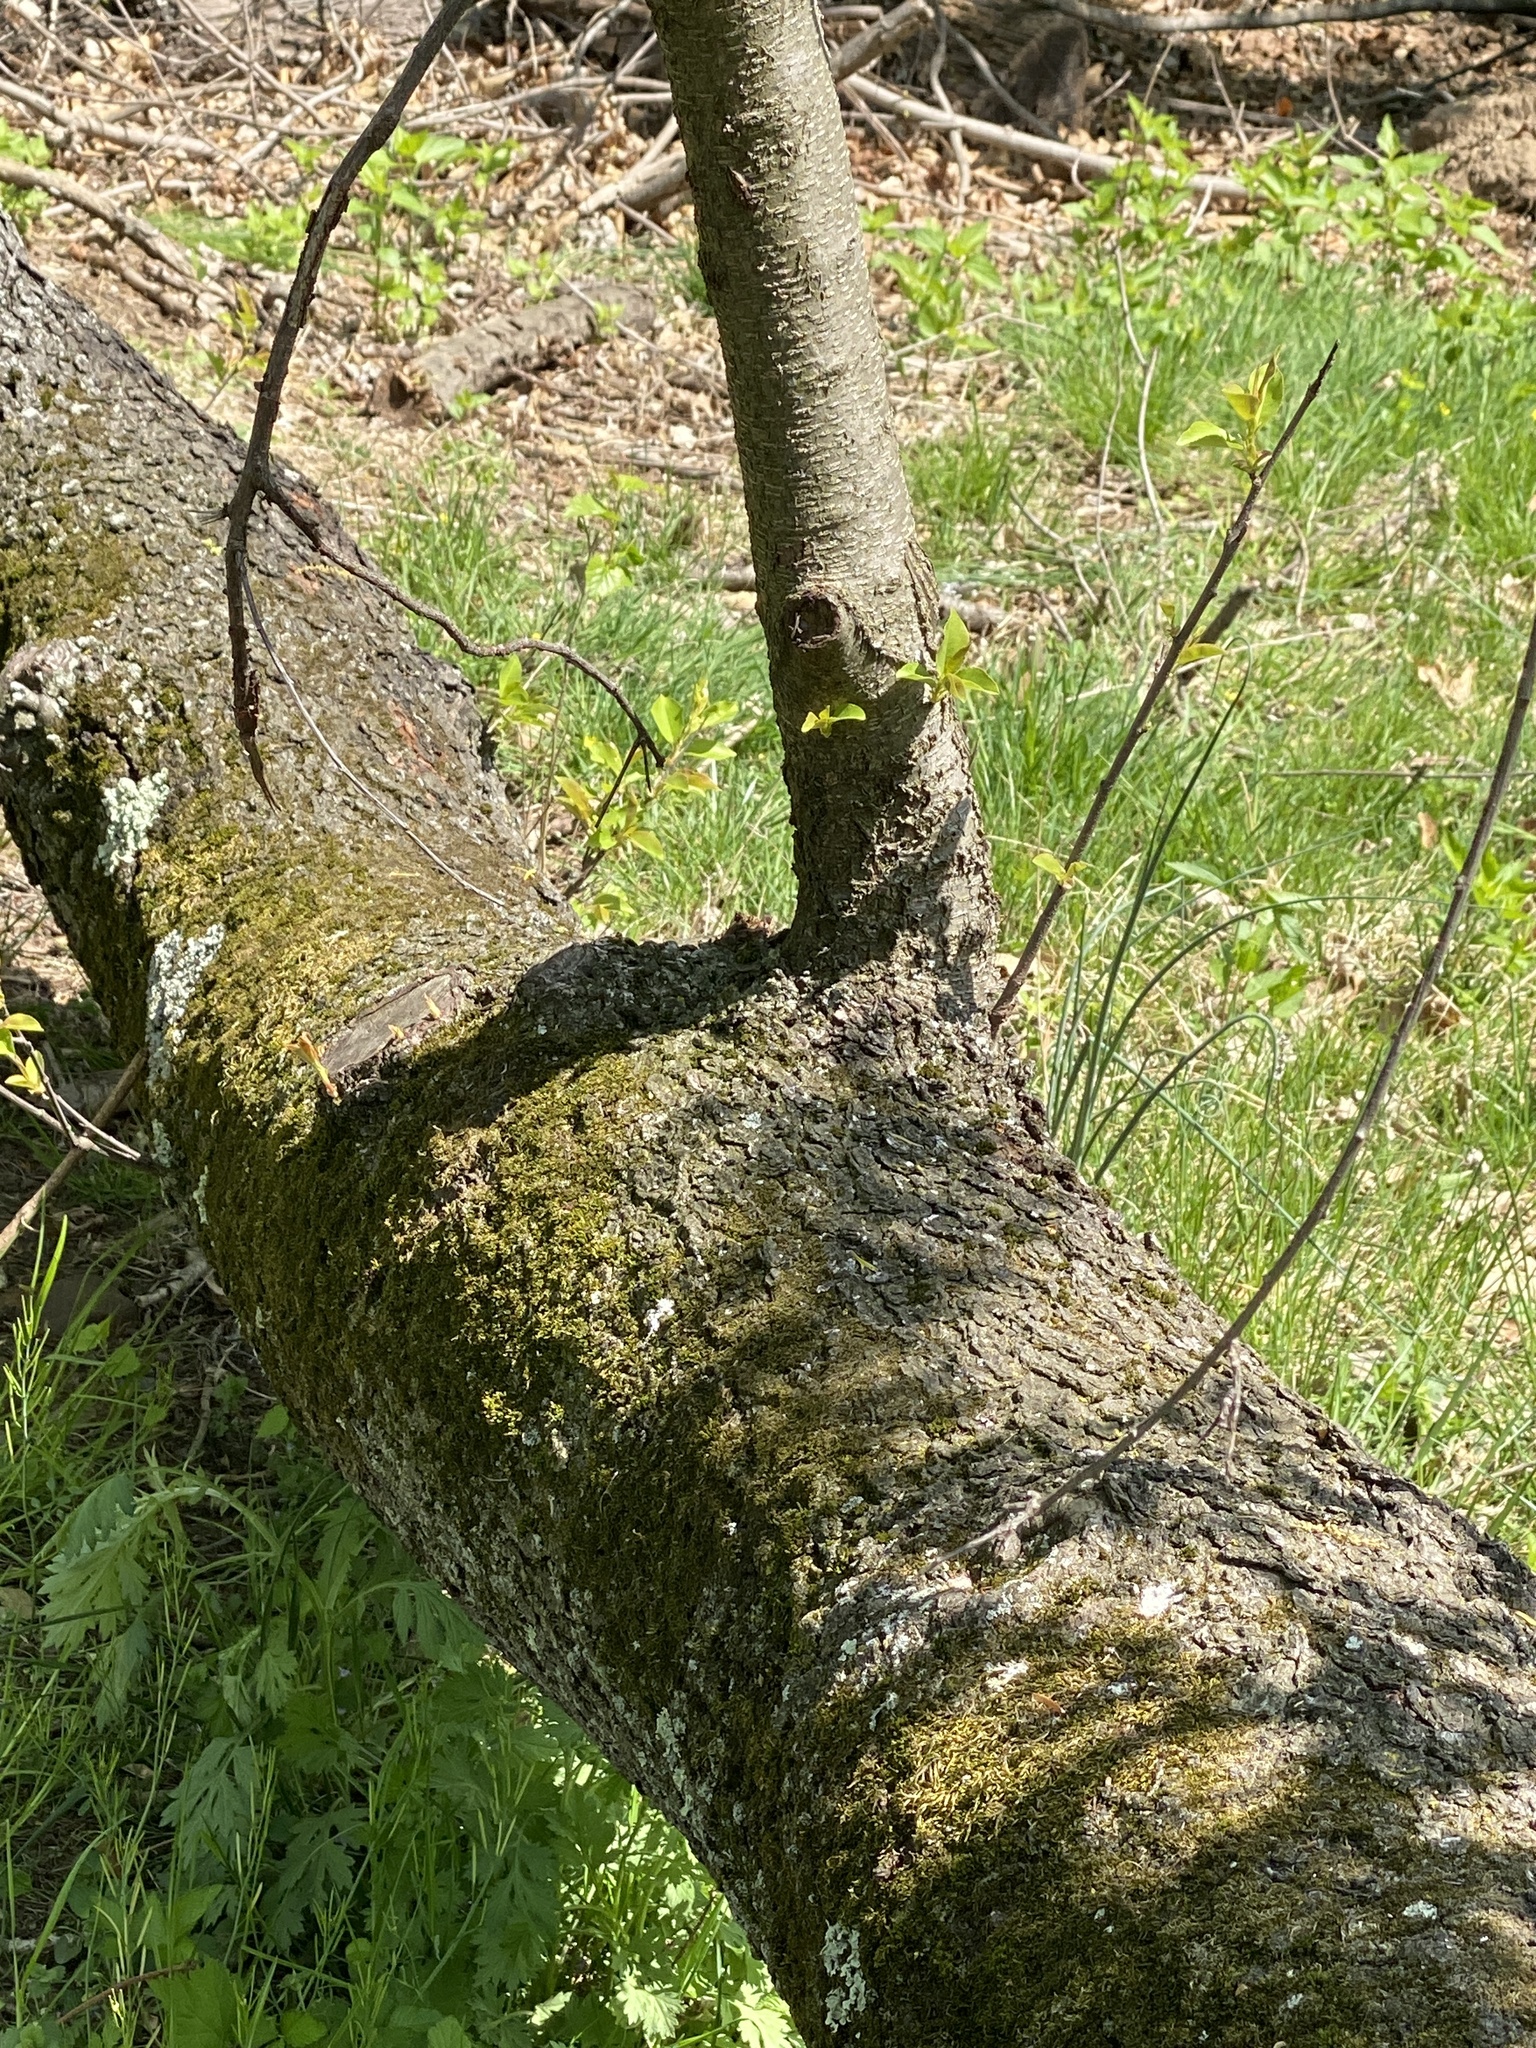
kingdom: Plantae
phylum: Tracheophyta
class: Magnoliopsida
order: Rosales
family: Rosaceae
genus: Prunus
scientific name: Prunus serotina
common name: Black cherry
